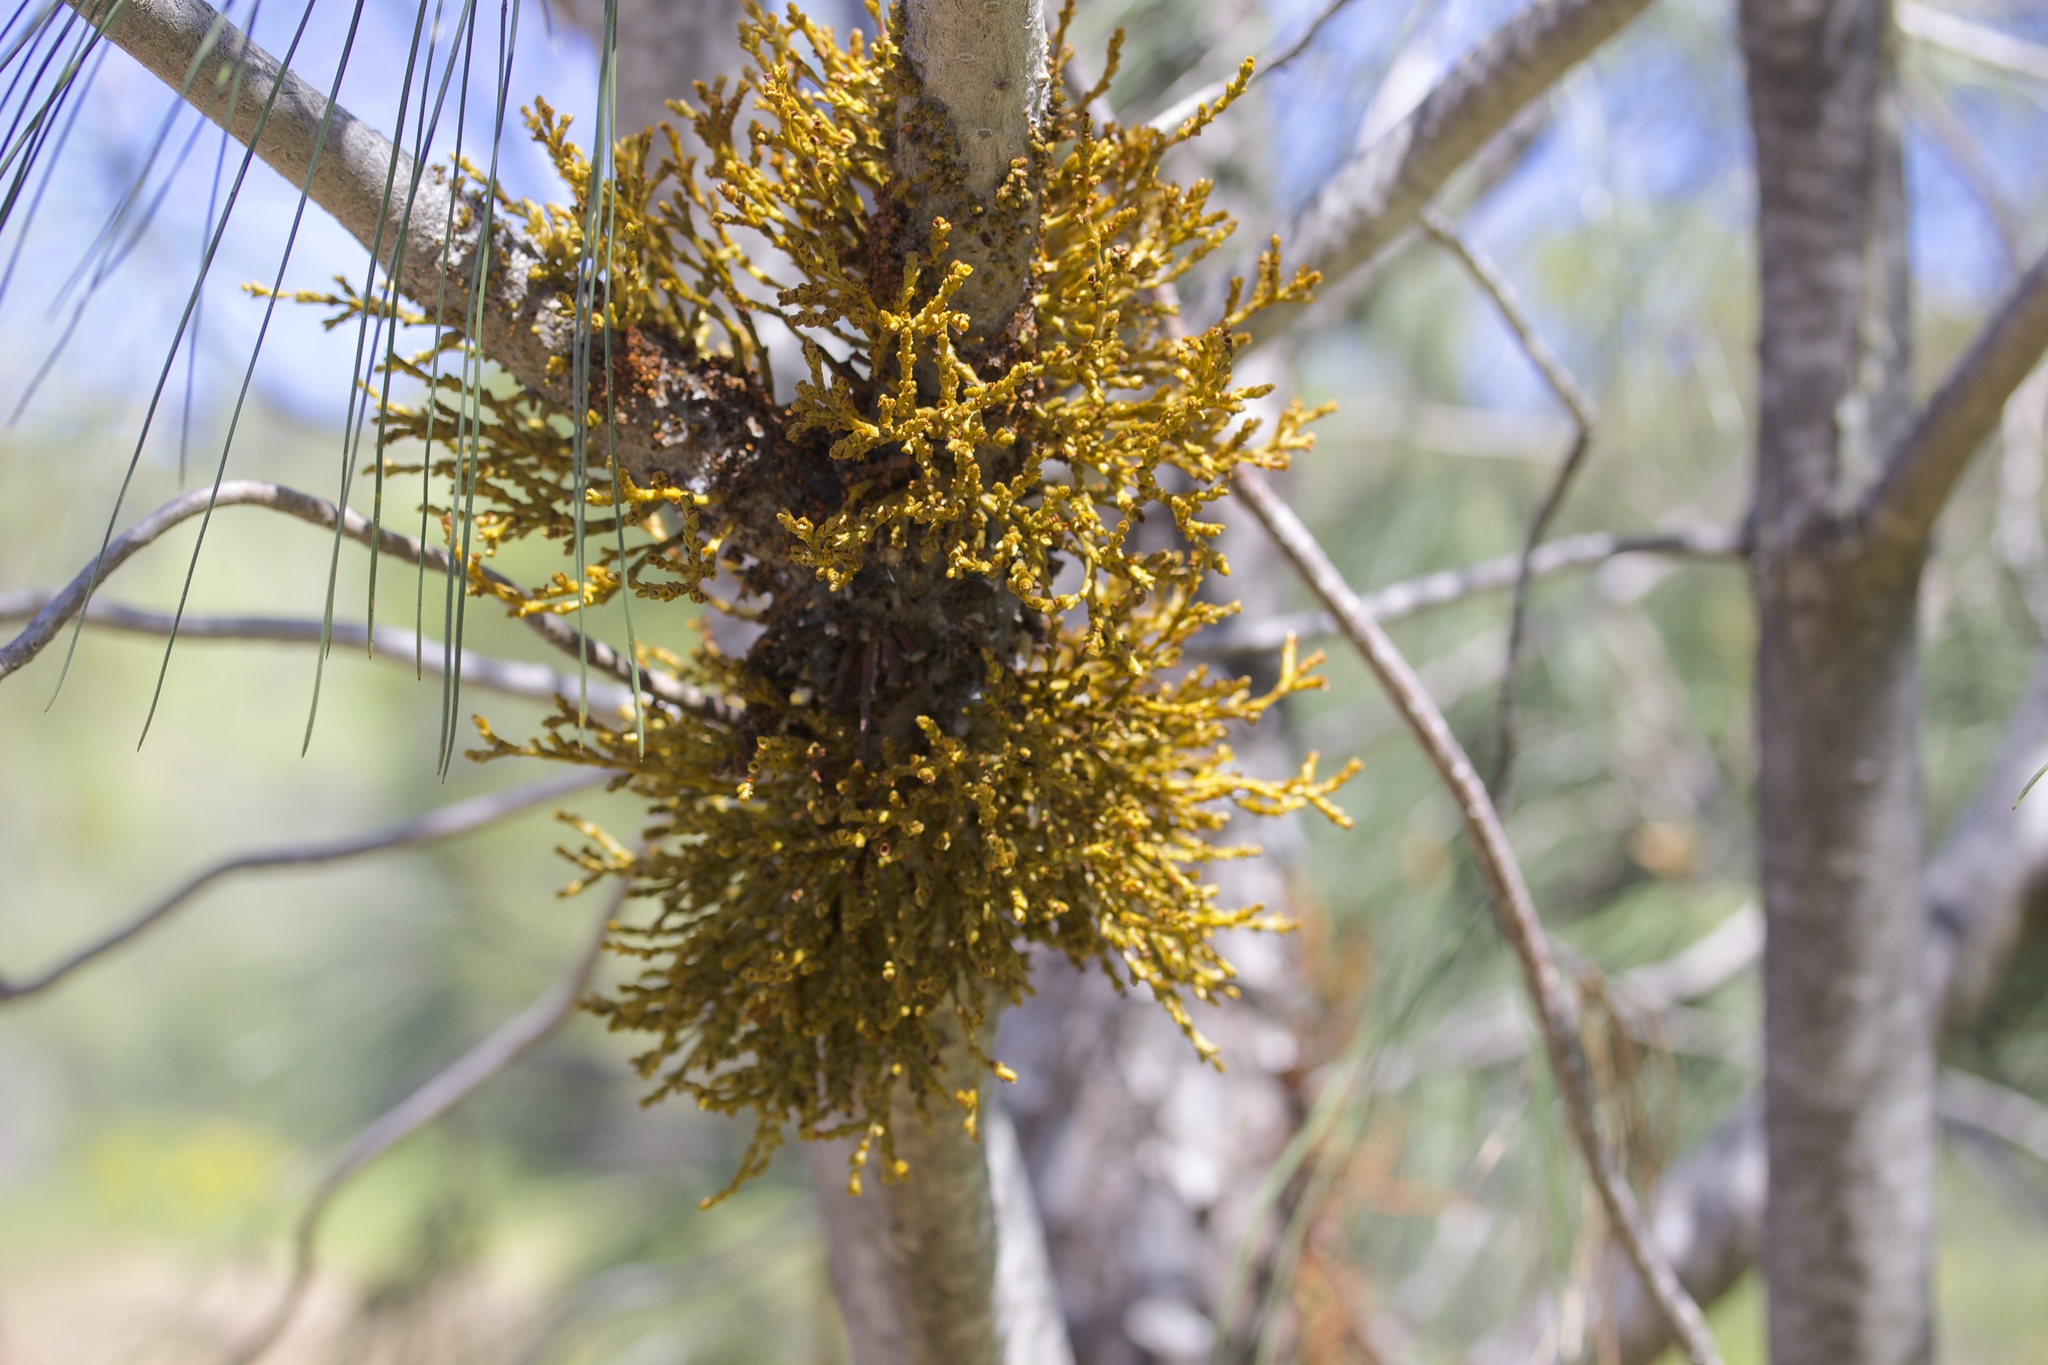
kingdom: Plantae
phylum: Tracheophyta
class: Magnoliopsida
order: Santalales
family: Viscaceae
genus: Arceuthobium
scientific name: Arceuthobium campylopodum
